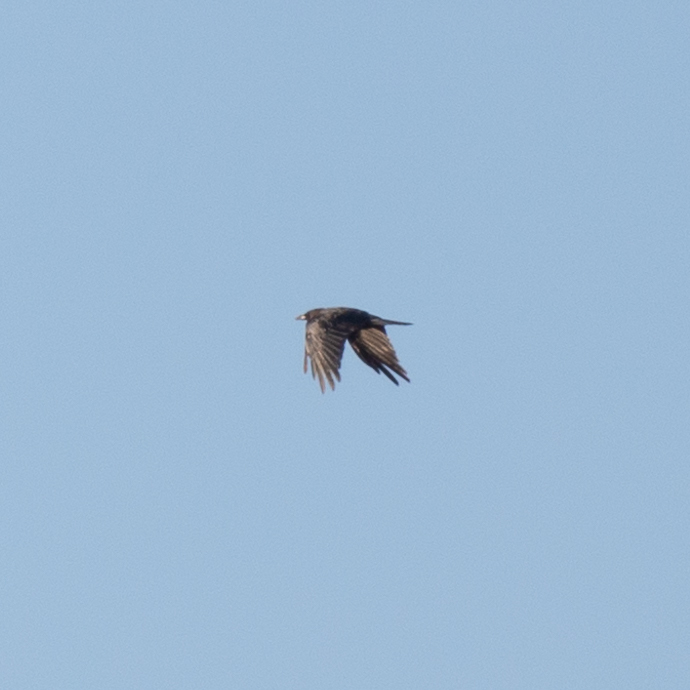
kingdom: Animalia
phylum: Chordata
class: Aves
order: Passeriformes
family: Corvidae
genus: Corvus
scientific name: Corvus corone
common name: Carrion crow
